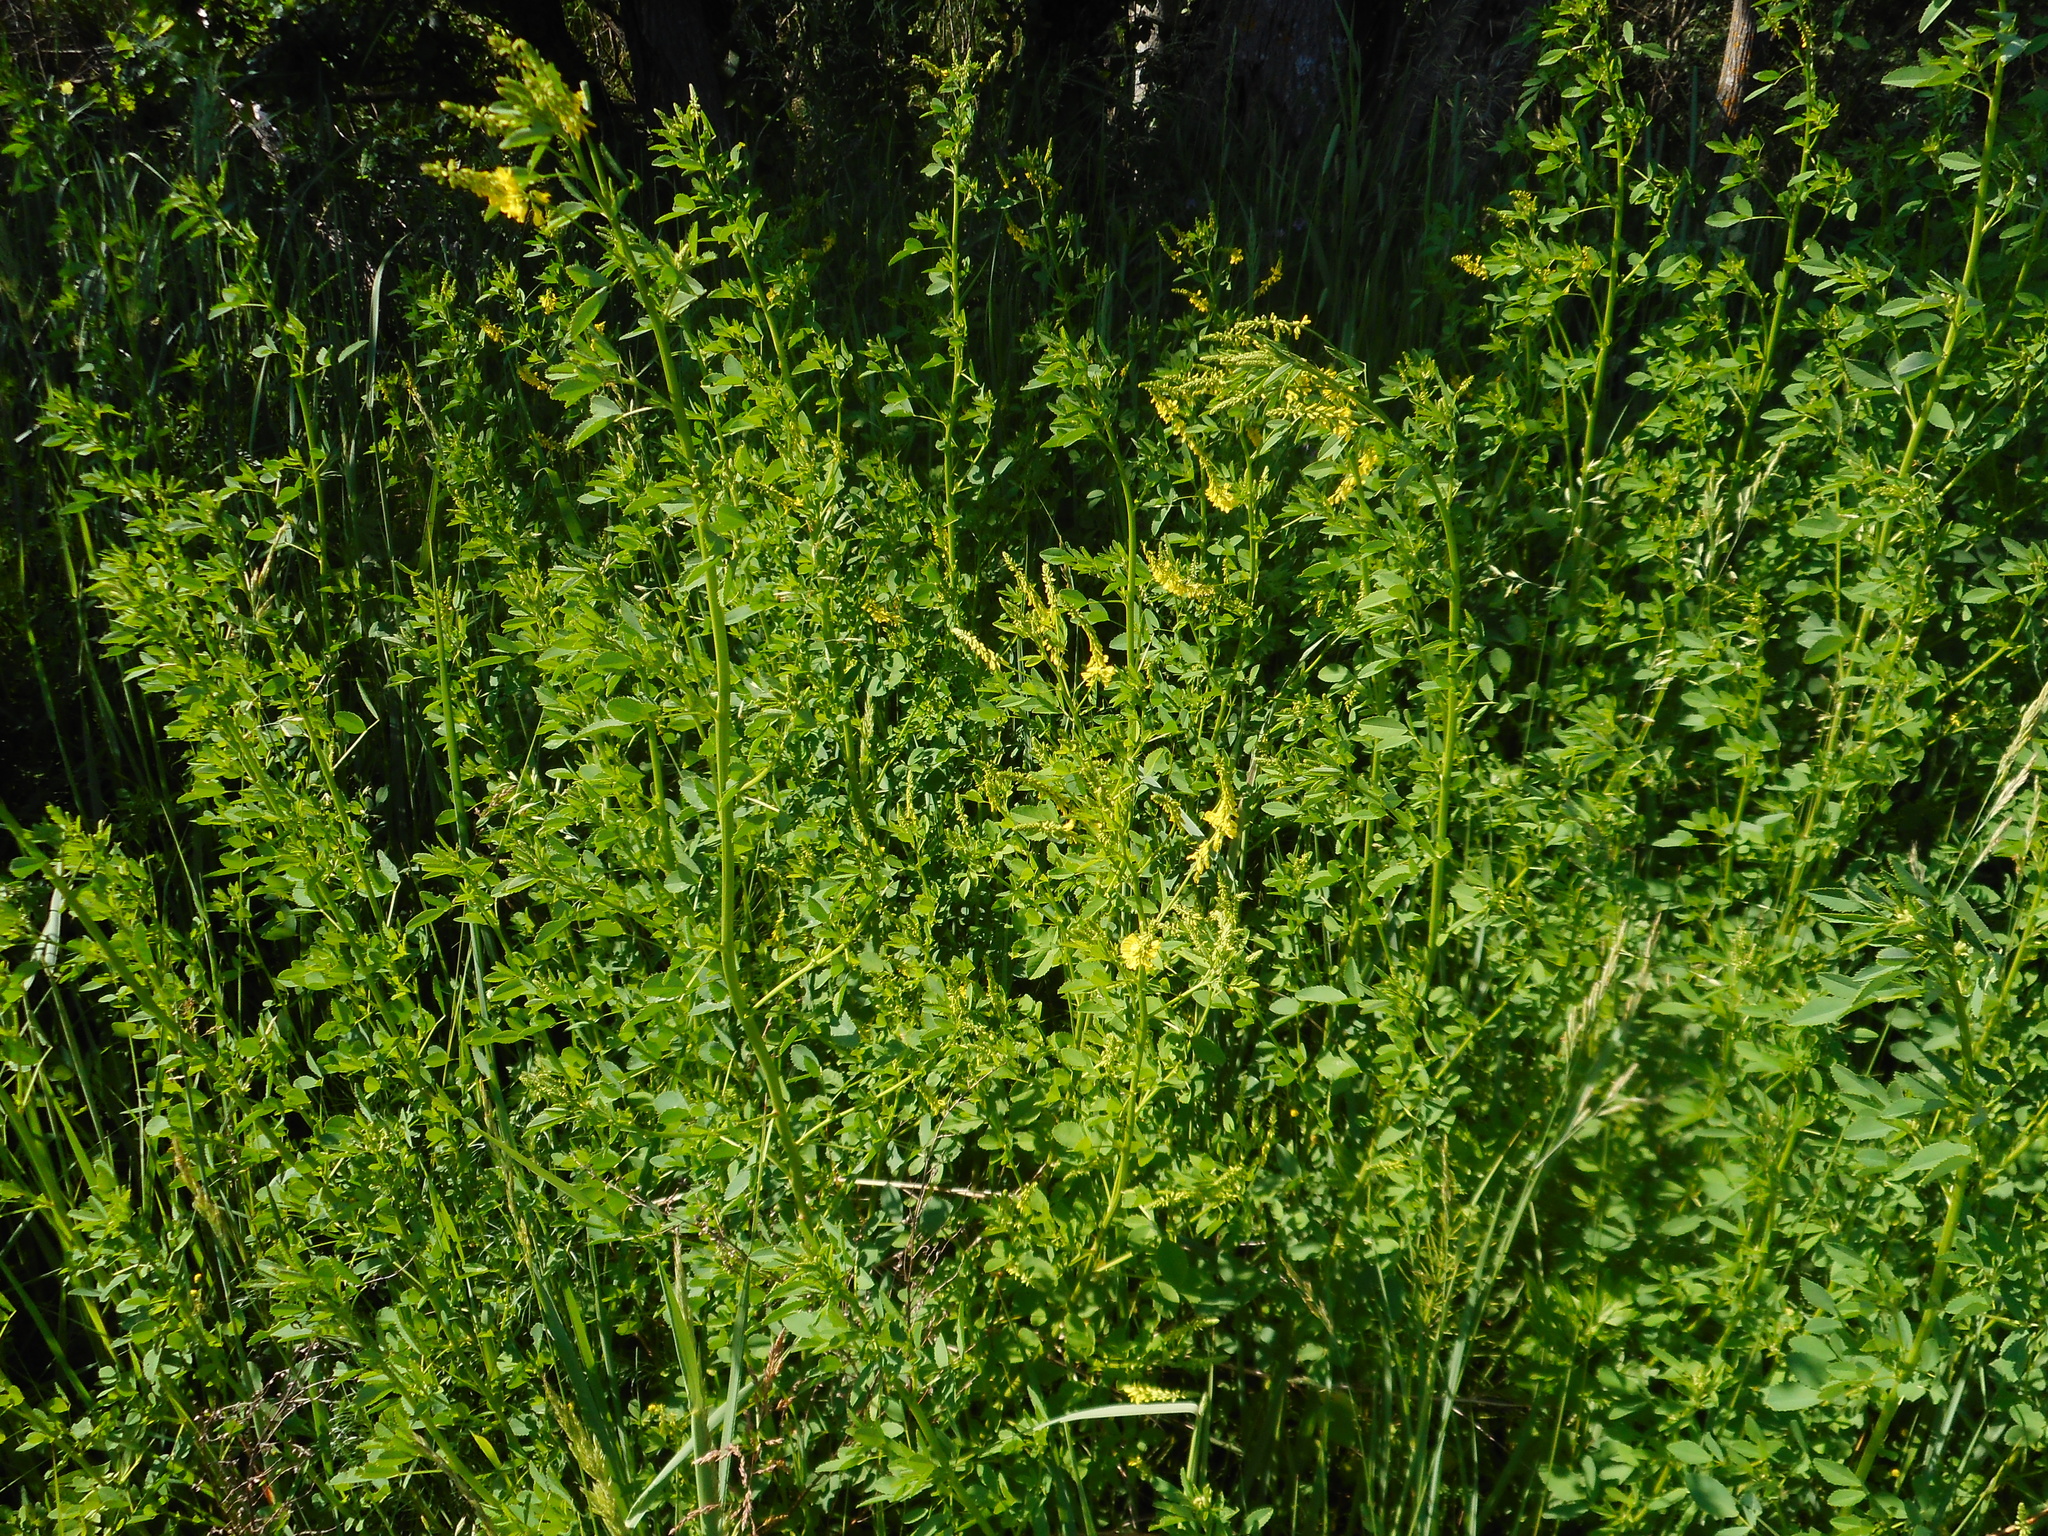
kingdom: Plantae
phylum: Tracheophyta
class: Magnoliopsida
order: Fabales
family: Fabaceae
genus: Melilotus
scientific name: Melilotus officinalis
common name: Sweetclover
